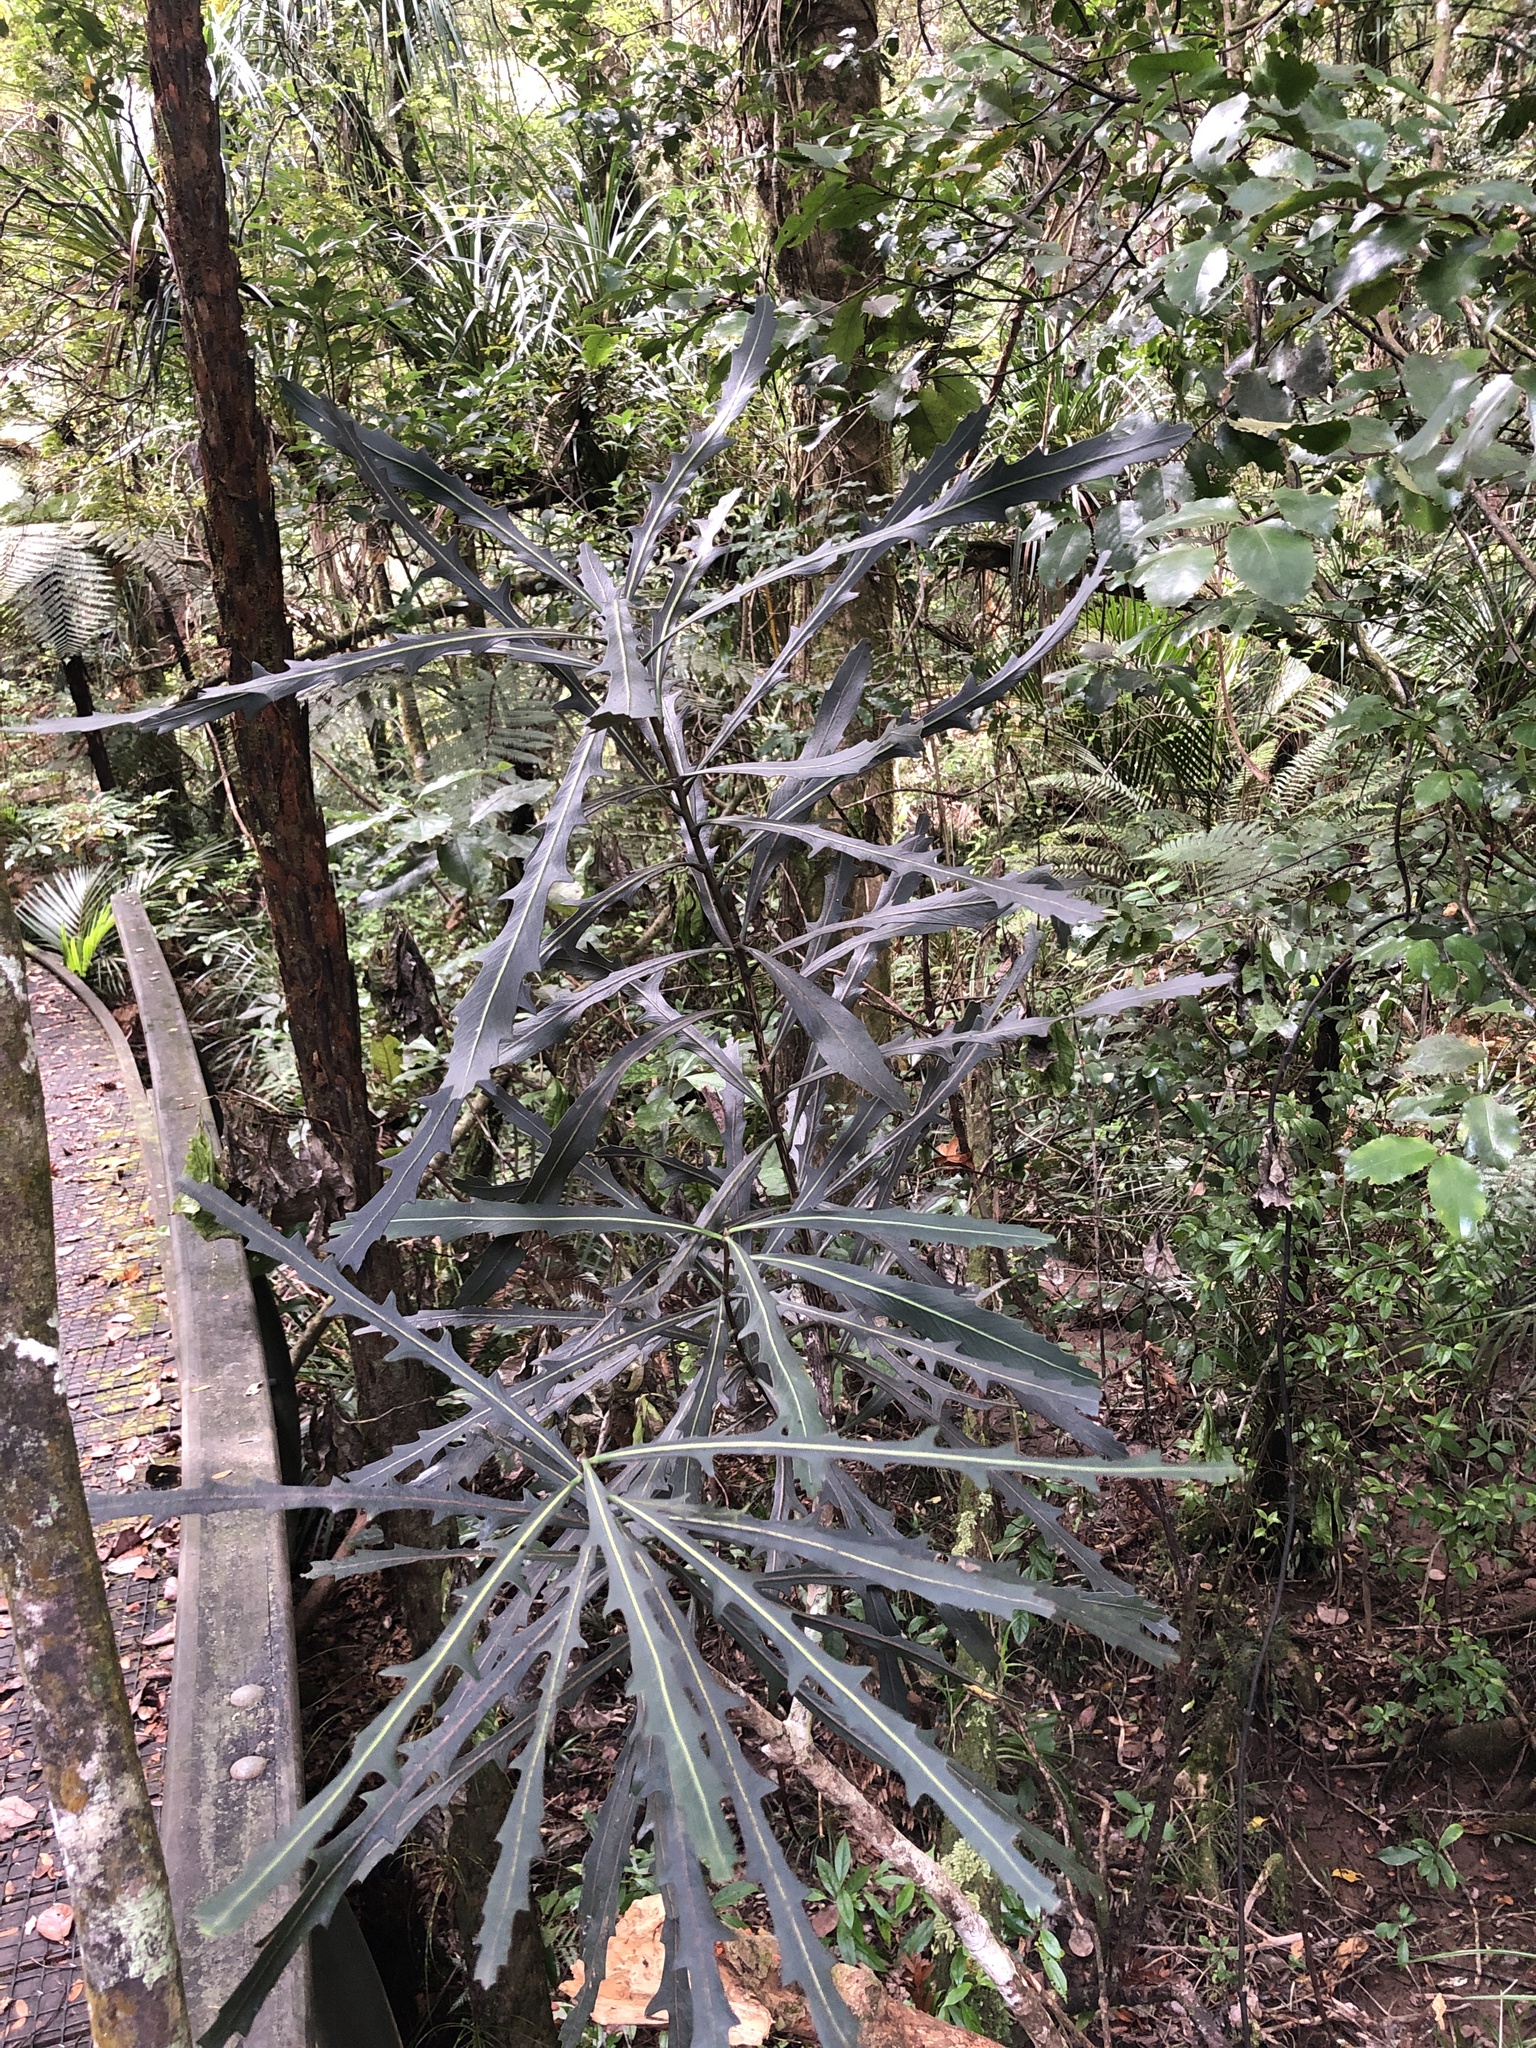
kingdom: Plantae
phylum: Tracheophyta
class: Magnoliopsida
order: Apiales
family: Araliaceae
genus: Pseudopanax
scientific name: Pseudopanax crassifolius
